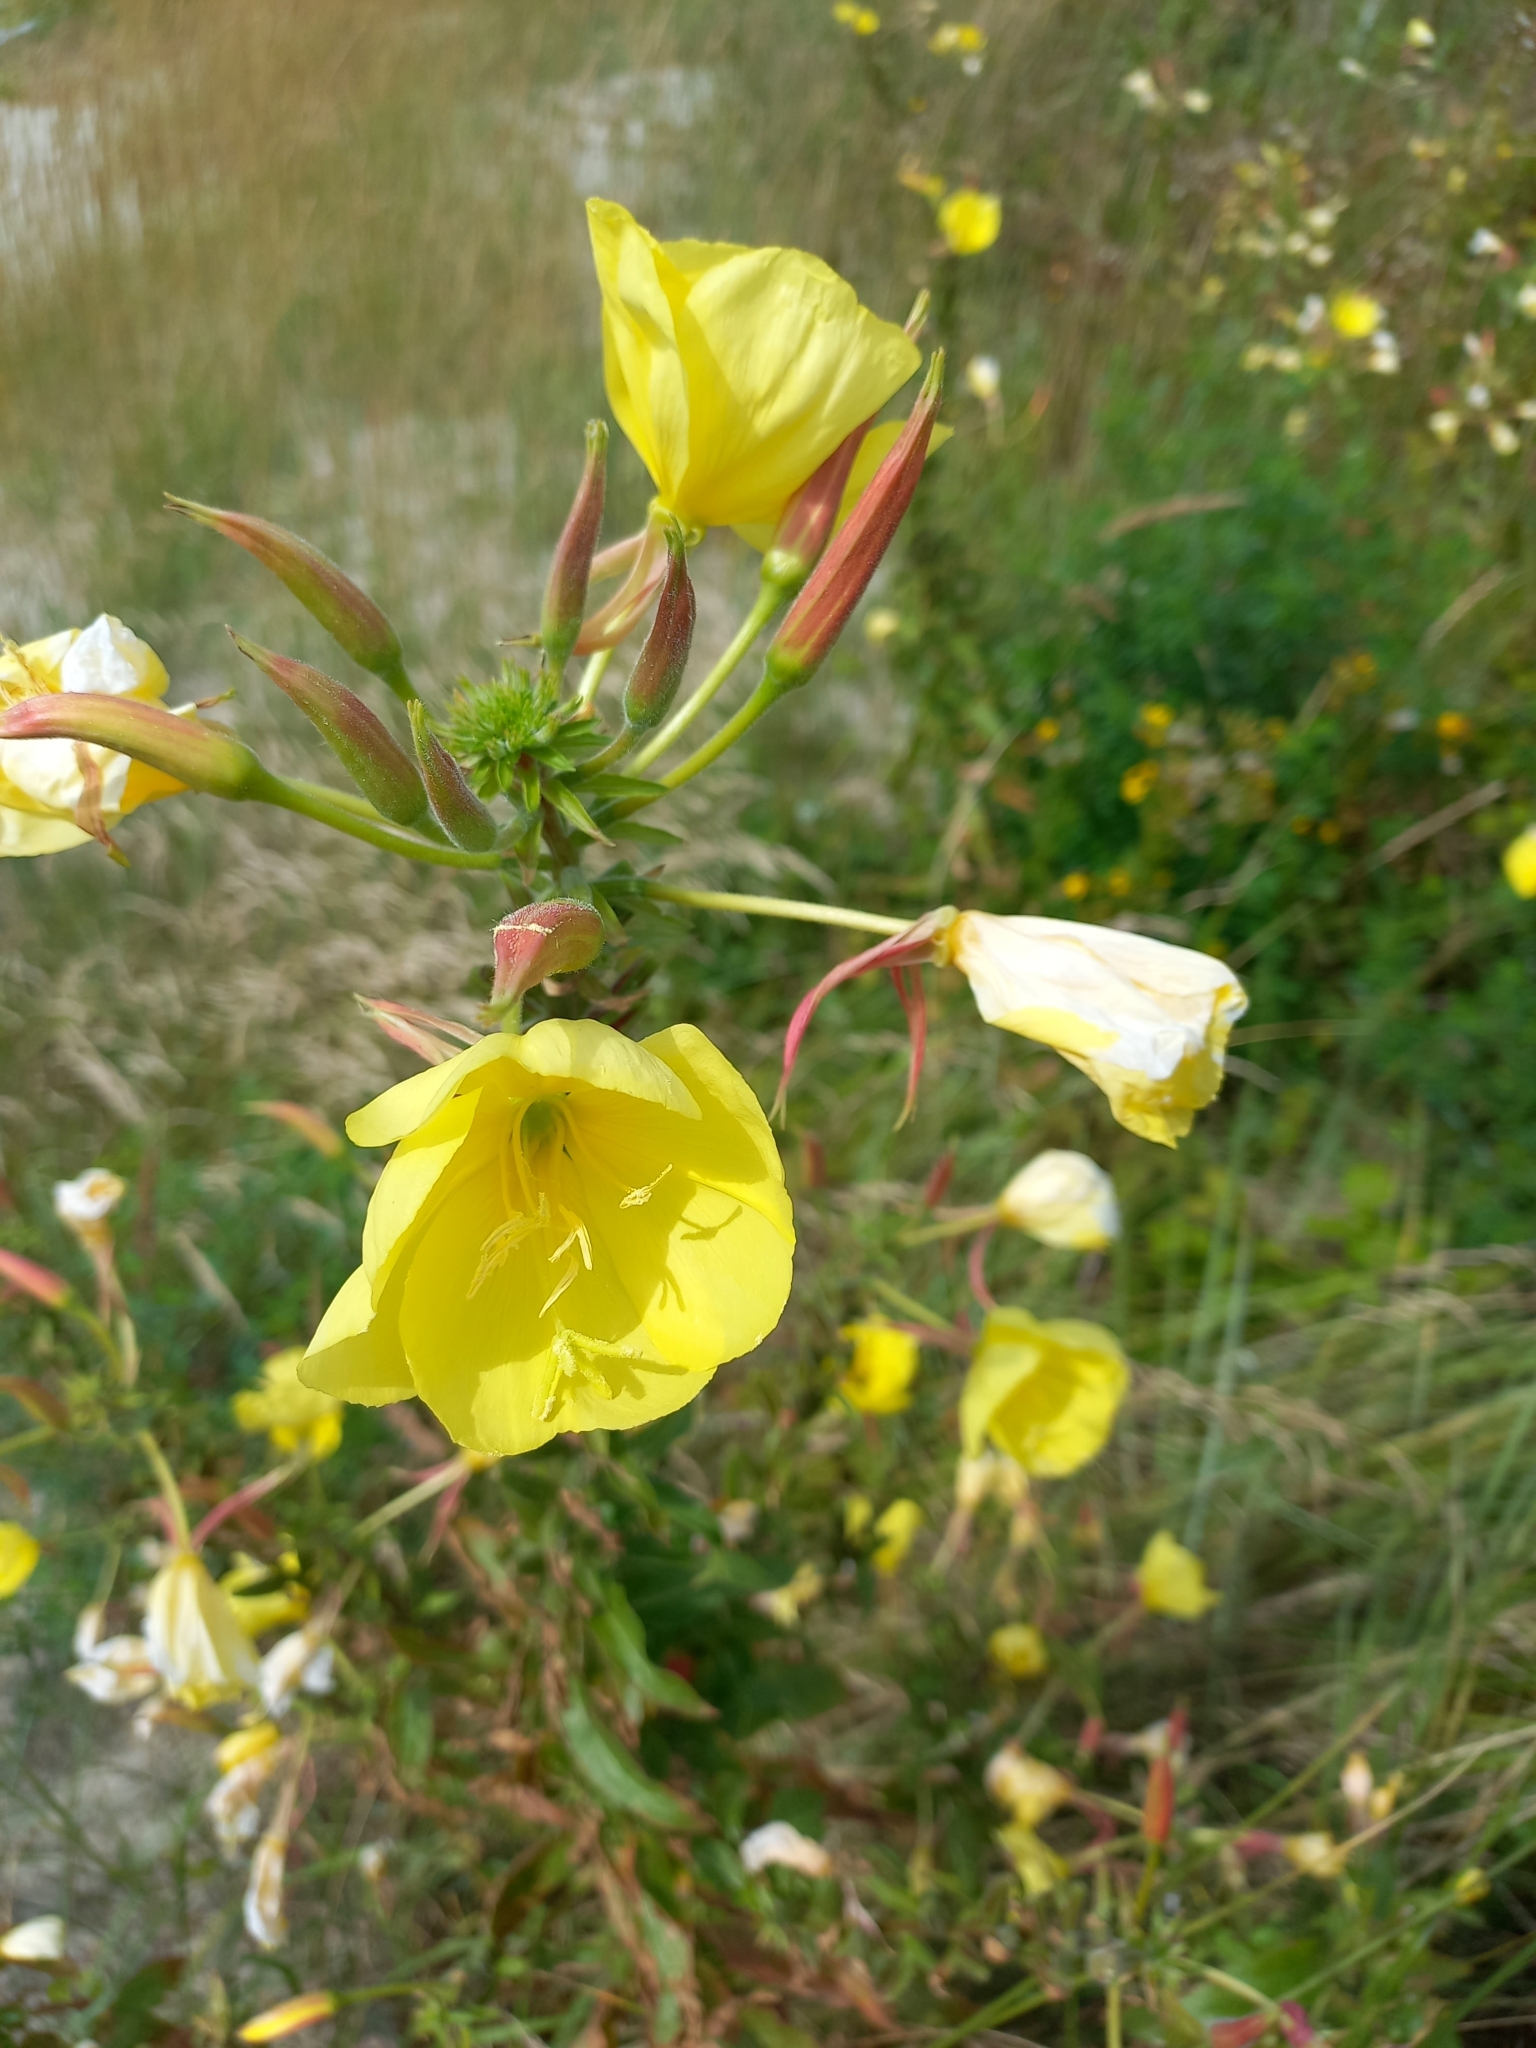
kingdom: Plantae
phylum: Tracheophyta
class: Magnoliopsida
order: Myrtales
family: Onagraceae
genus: Oenothera
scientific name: Oenothera glazioviana
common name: Large-flowered evening-primrose
